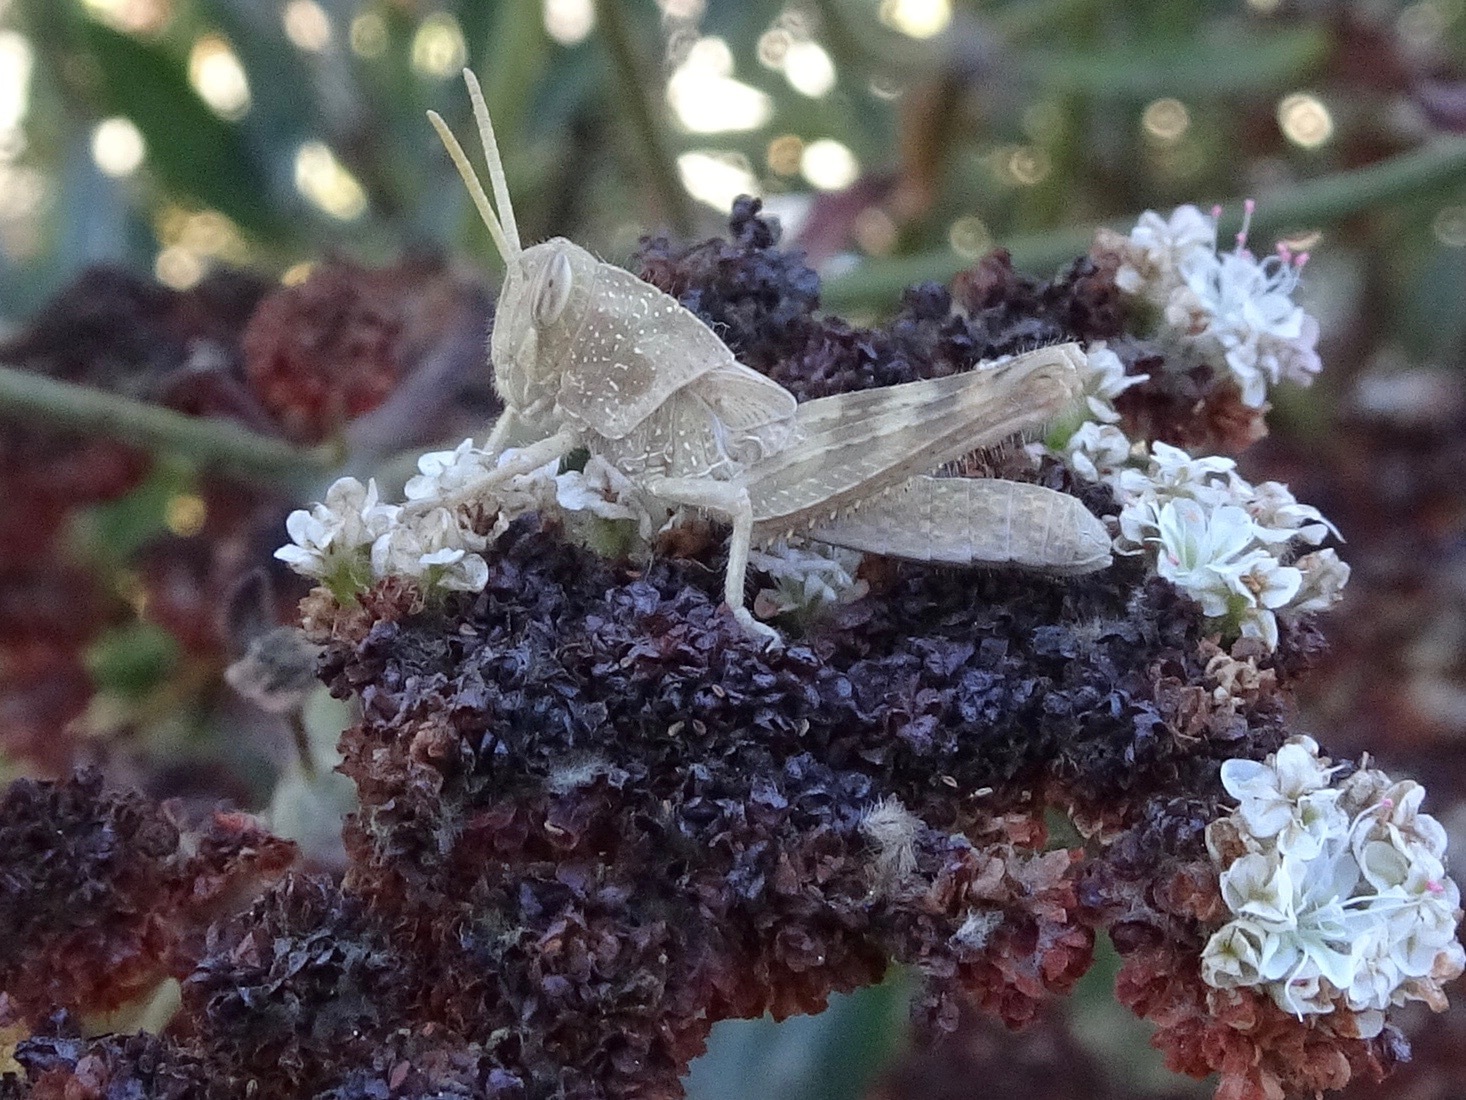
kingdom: Animalia
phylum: Arthropoda
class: Insecta
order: Orthoptera
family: Acrididae
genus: Schistocerca
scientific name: Schistocerca nitens
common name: Vagrant grasshopper
